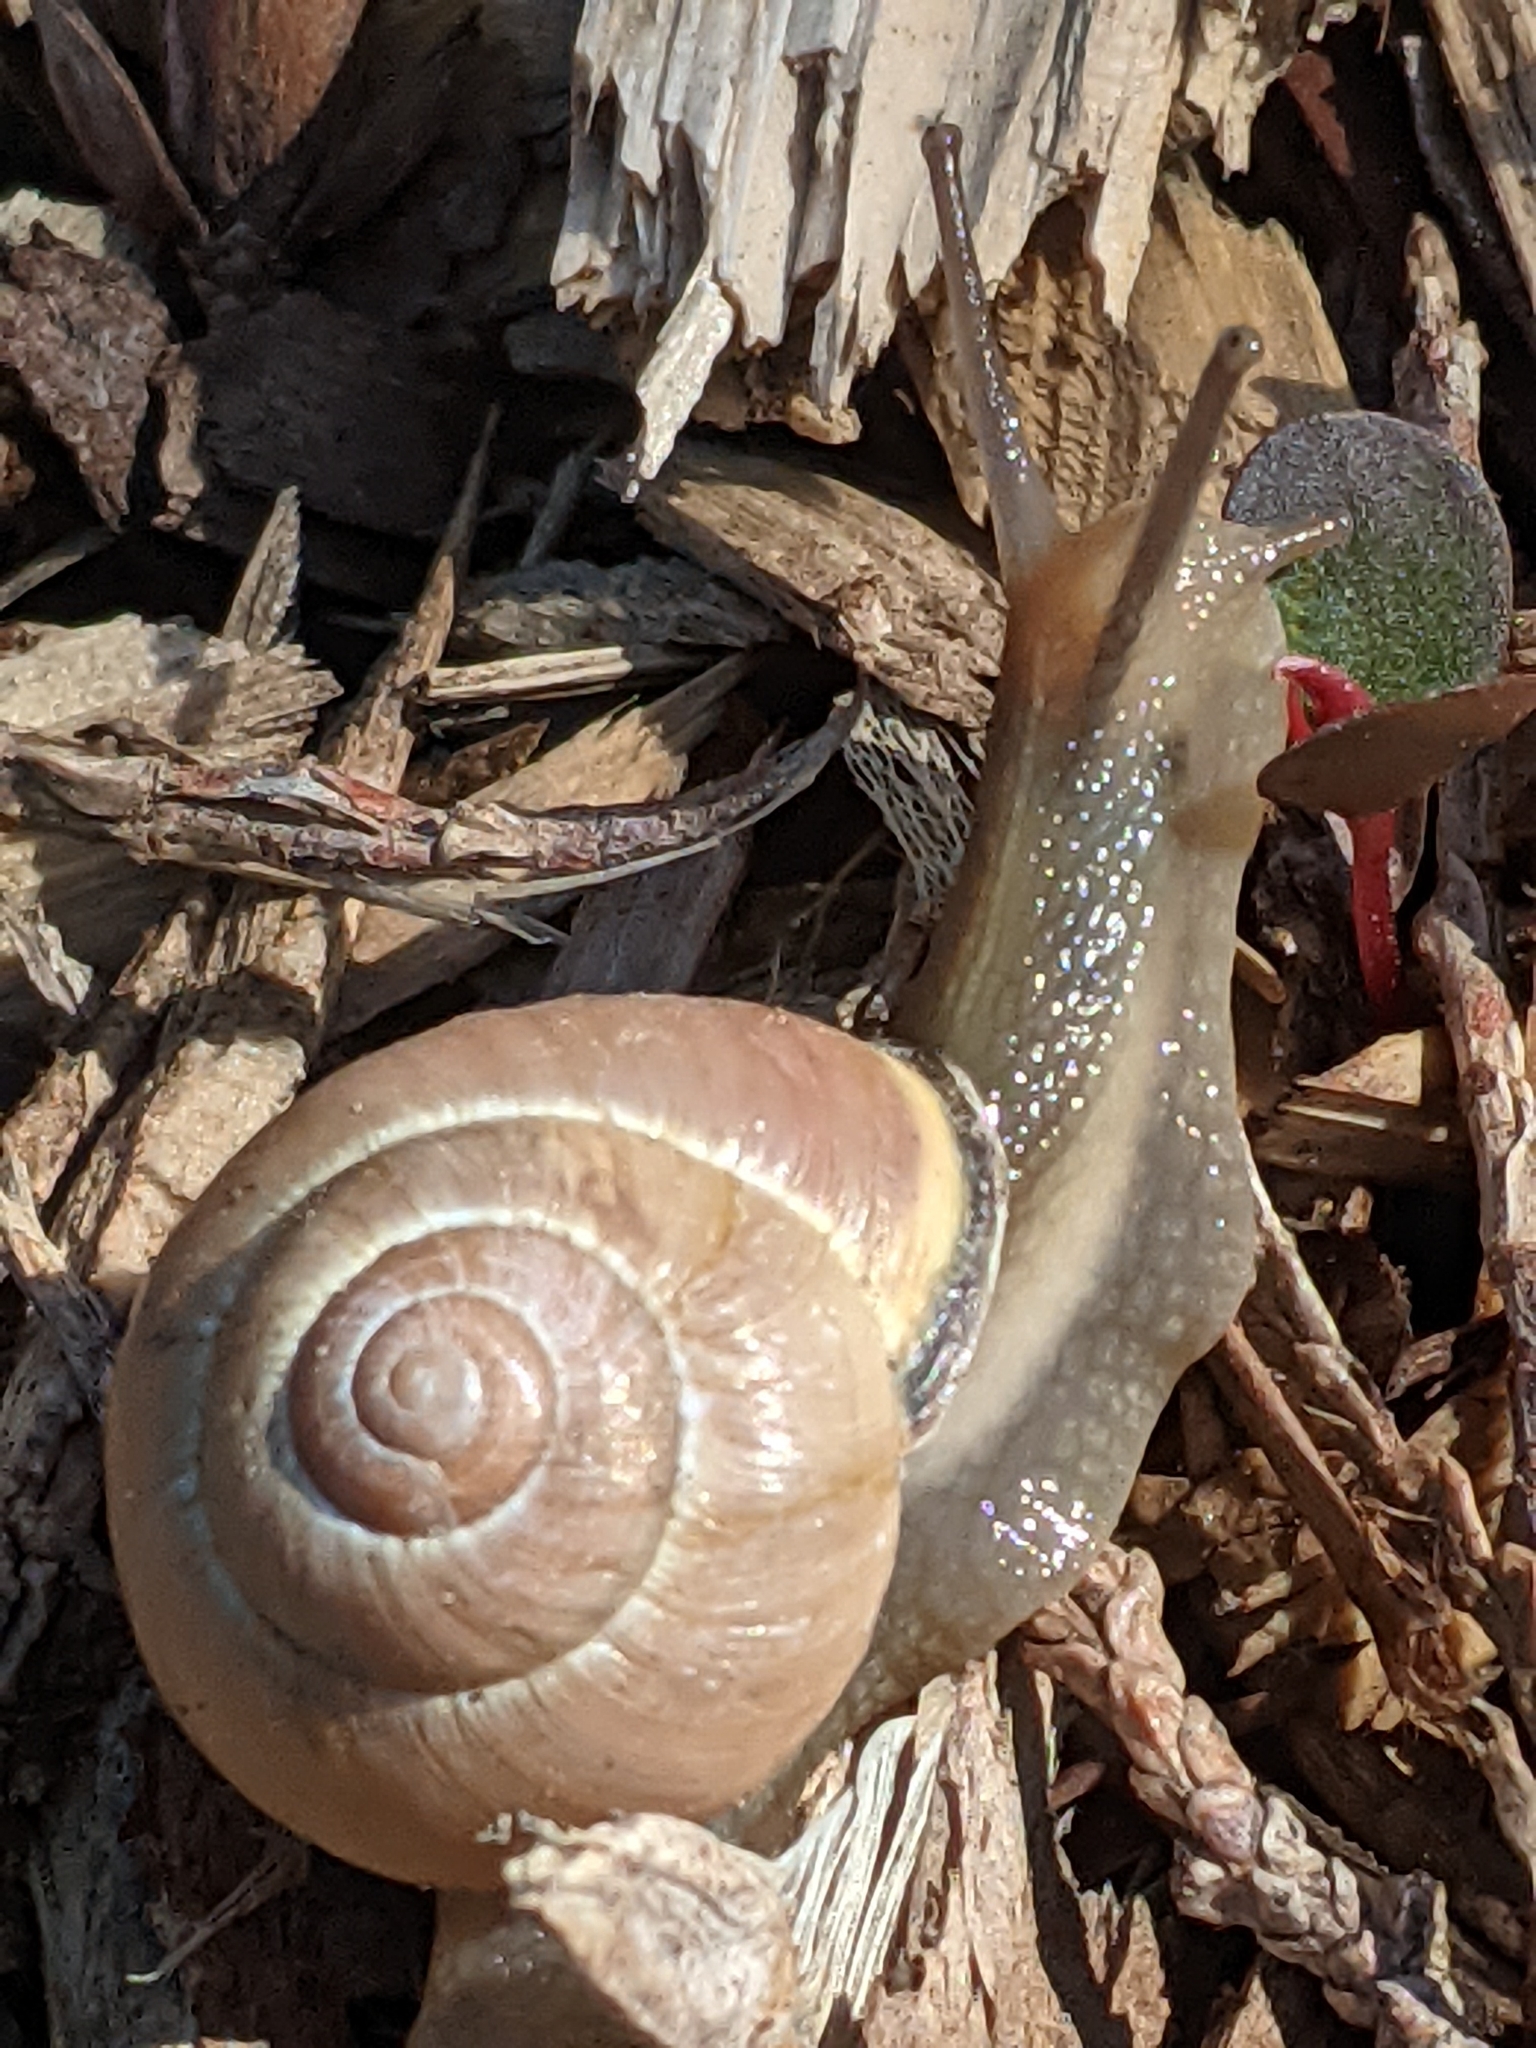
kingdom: Animalia
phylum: Mollusca
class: Gastropoda
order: Stylommatophora
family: Helicidae
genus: Cepaea
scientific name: Cepaea nemoralis
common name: Grovesnail
